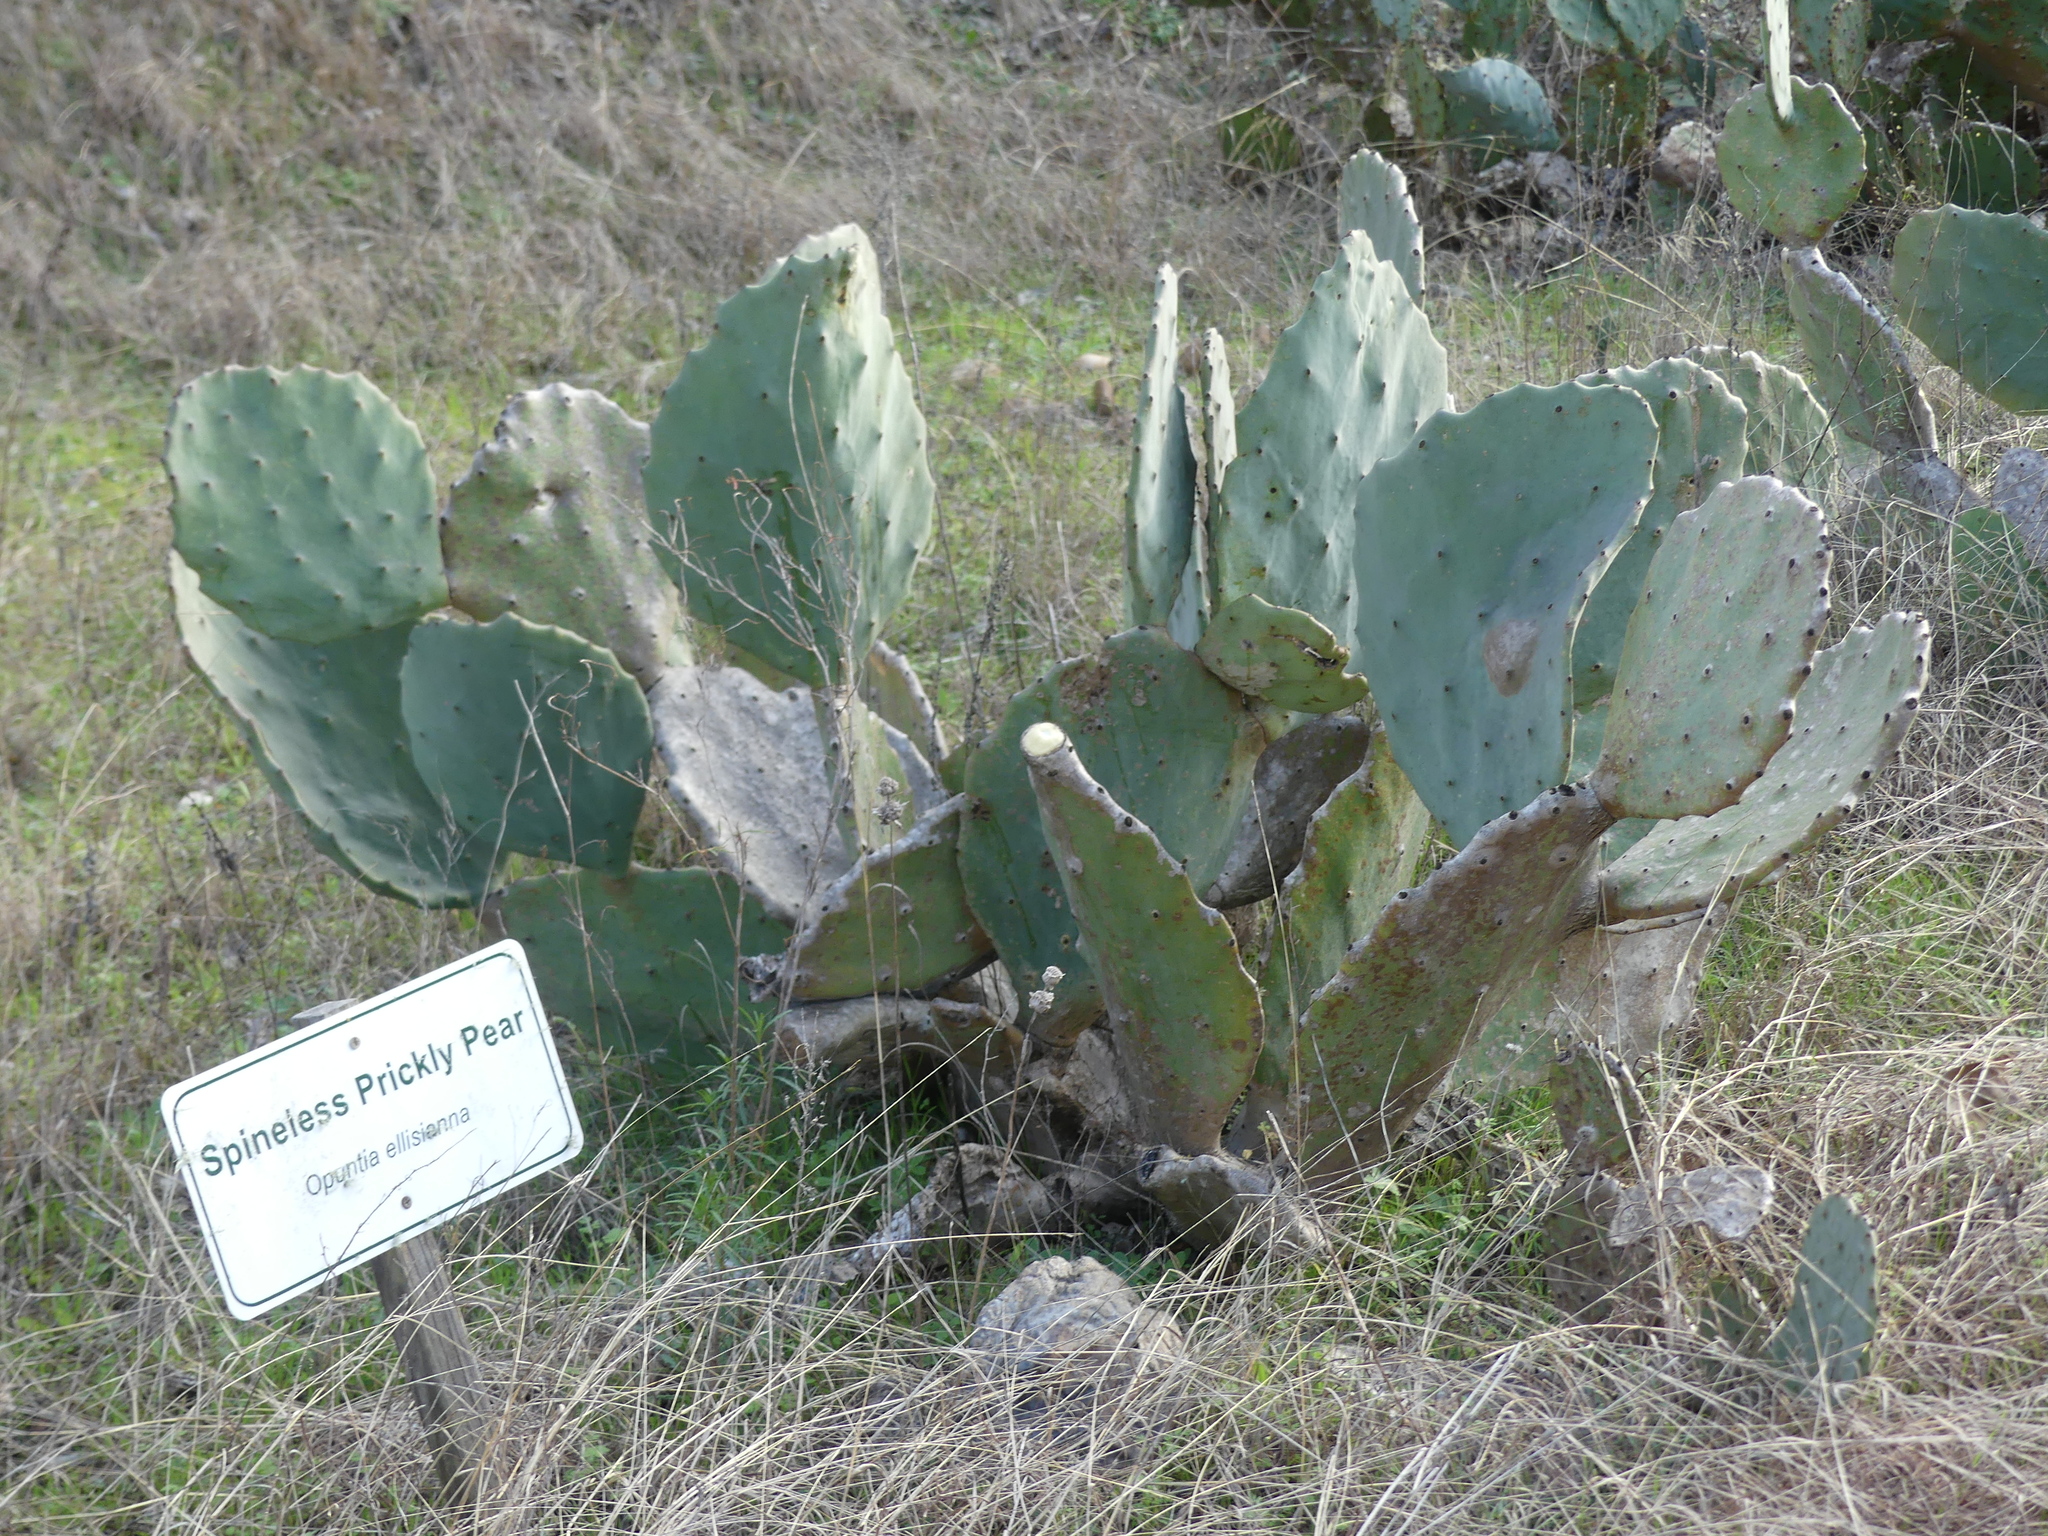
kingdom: Plantae
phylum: Tracheophyta
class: Magnoliopsida
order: Caryophyllales
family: Cactaceae
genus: Opuntia
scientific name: Opuntia dillenii
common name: Sour prickle
